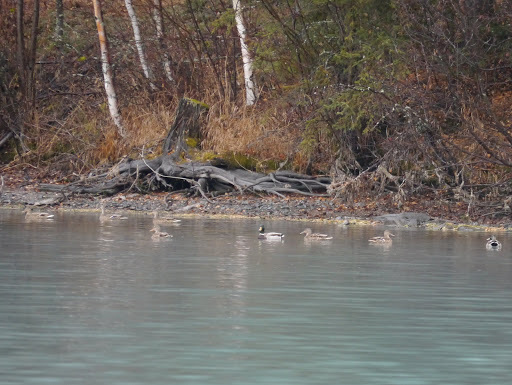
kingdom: Animalia
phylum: Chordata
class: Aves
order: Anseriformes
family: Anatidae
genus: Anas
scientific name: Anas platyrhynchos
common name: Mallard
